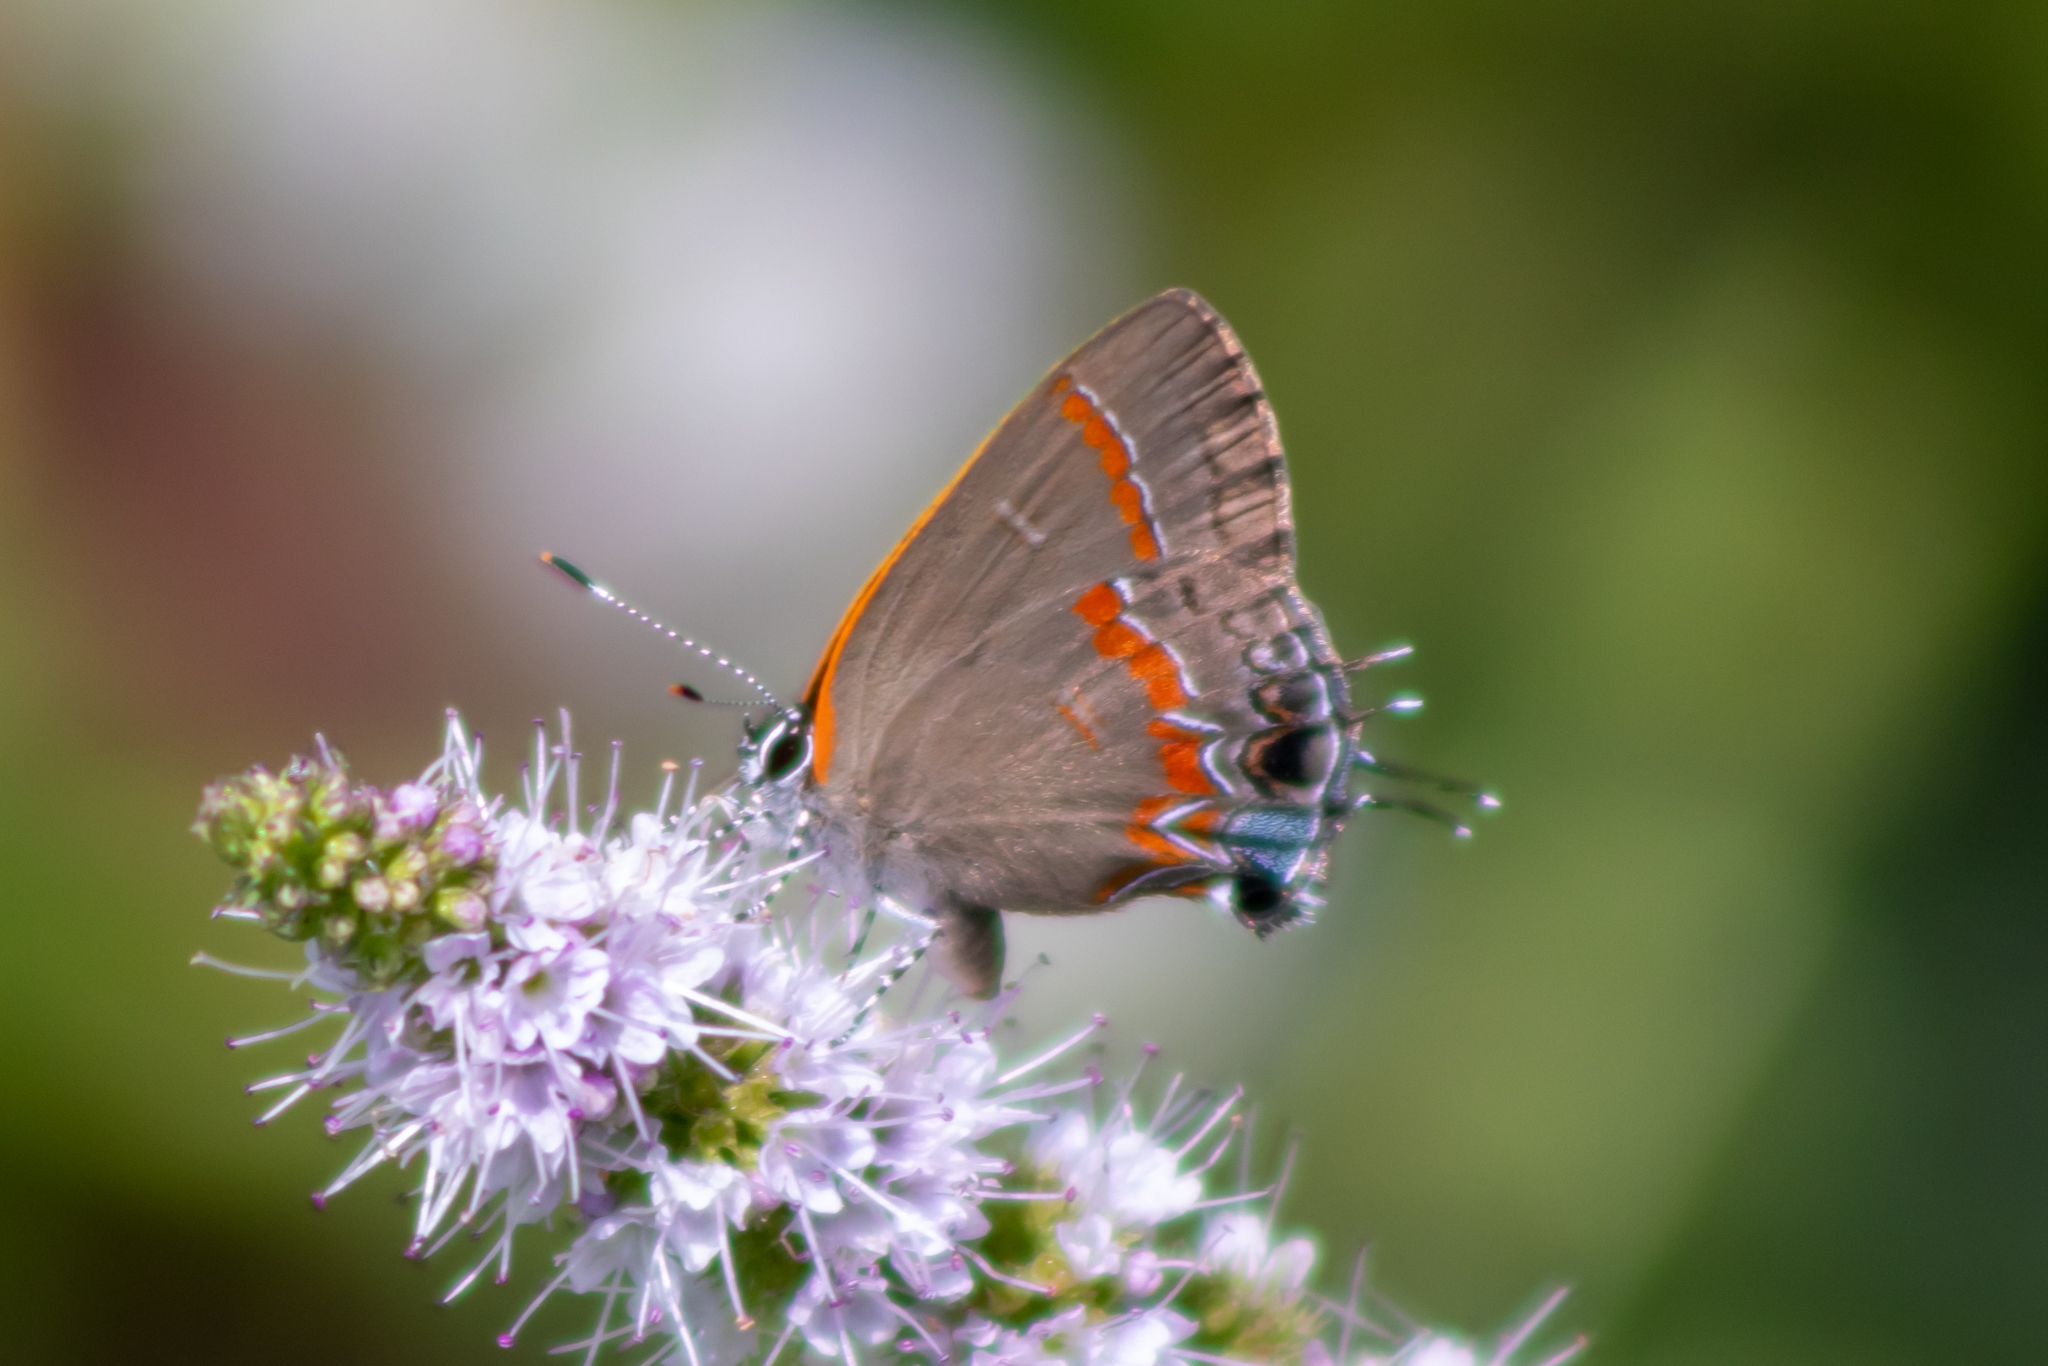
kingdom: Animalia
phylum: Arthropoda
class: Insecta
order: Lepidoptera
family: Lycaenidae
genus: Calycopis
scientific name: Calycopis cecrops
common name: Red-banded hairstreak
